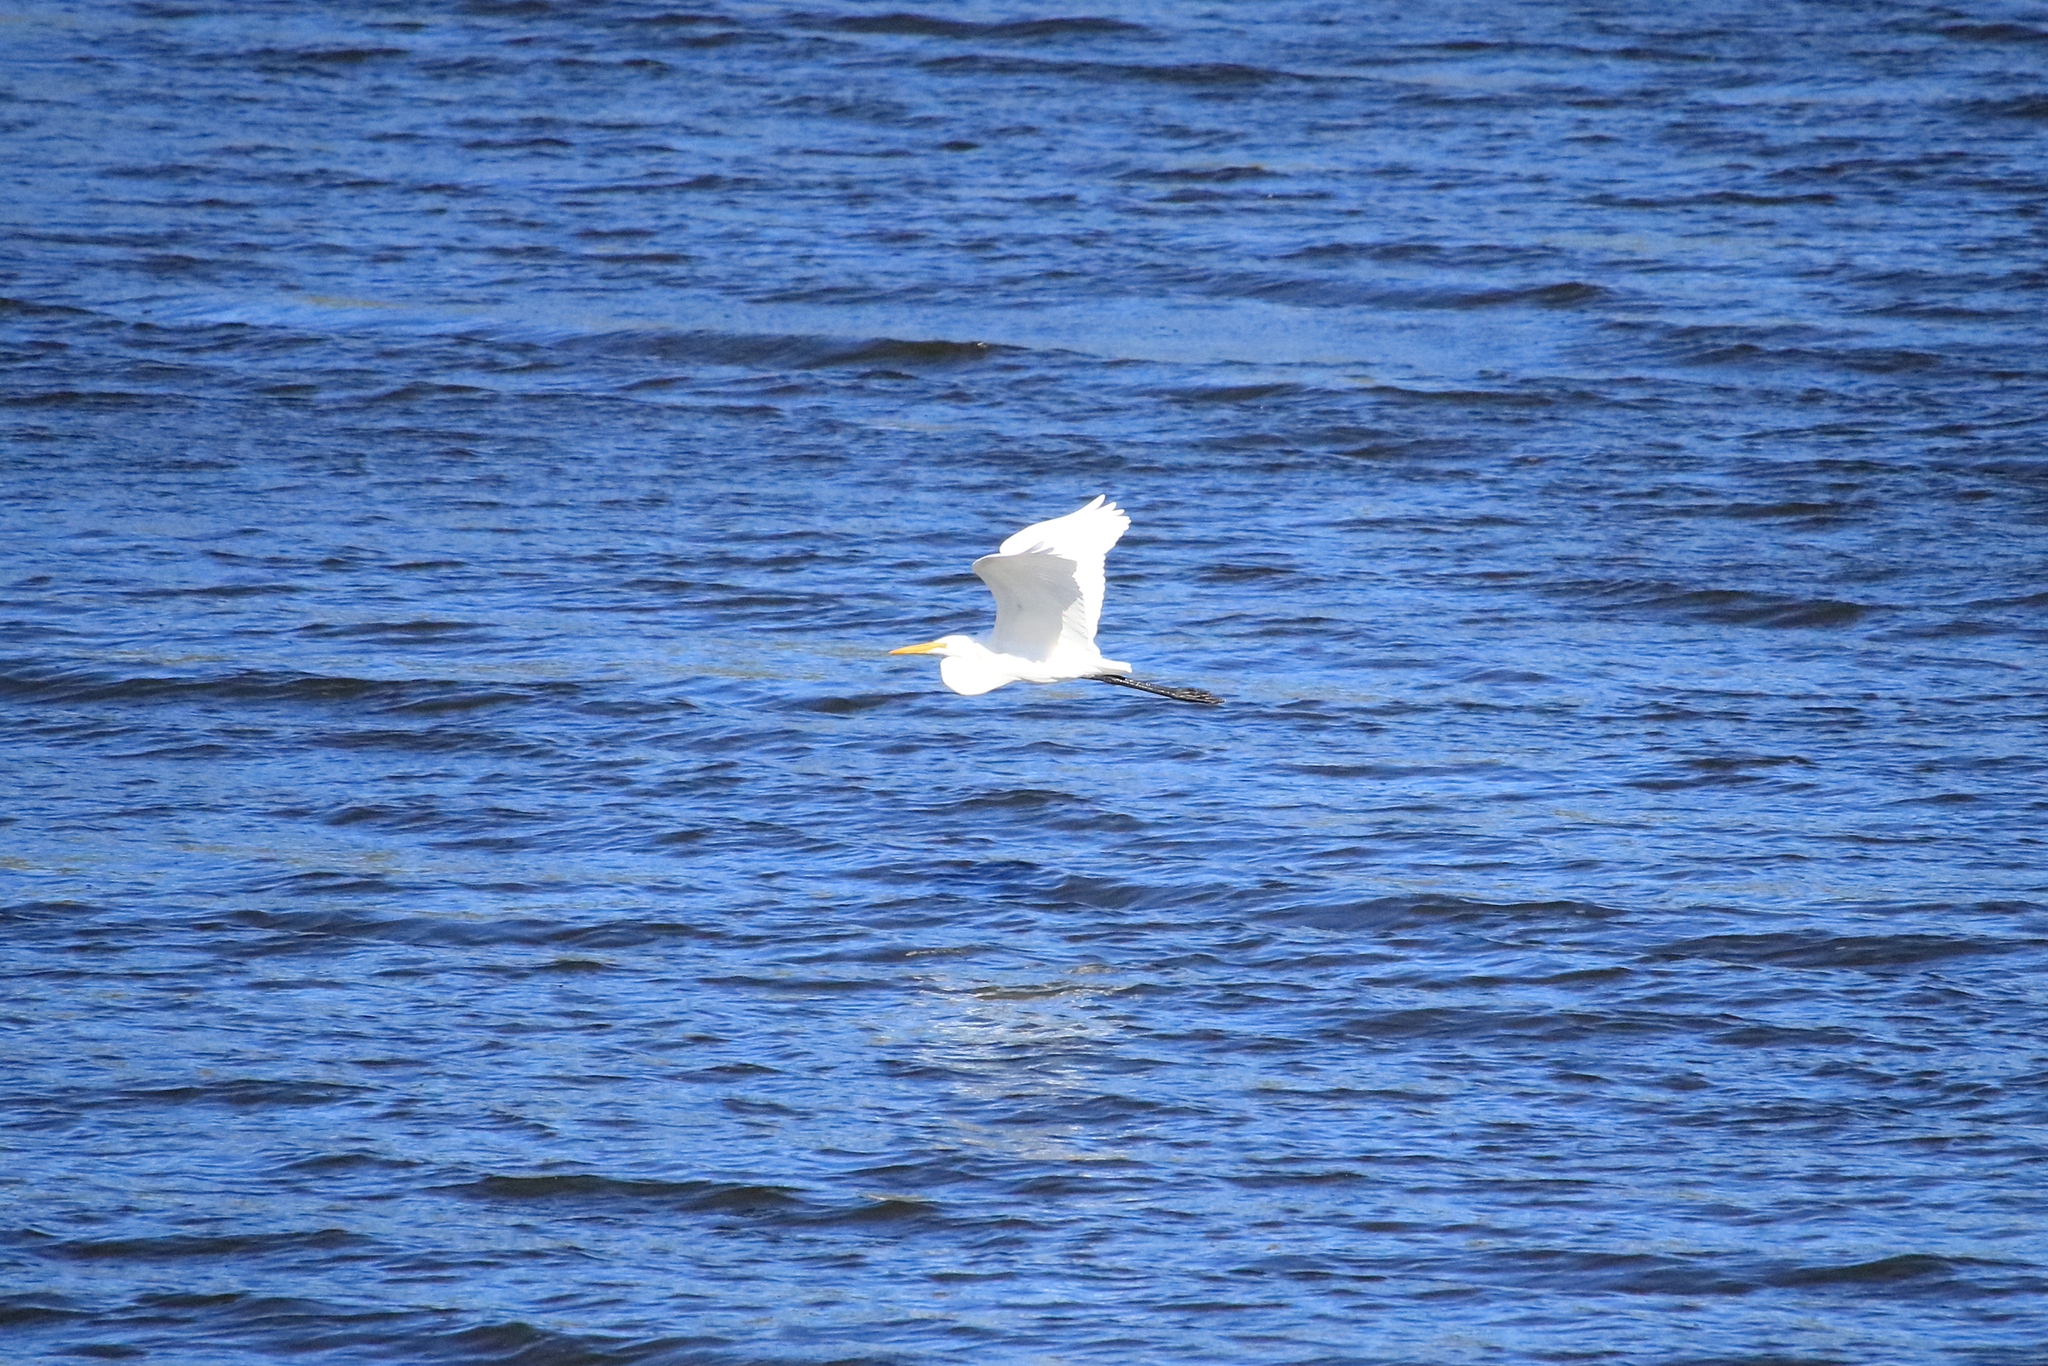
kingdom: Animalia
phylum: Chordata
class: Aves
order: Pelecaniformes
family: Ardeidae
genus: Ardea
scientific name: Ardea alba
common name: Great egret
